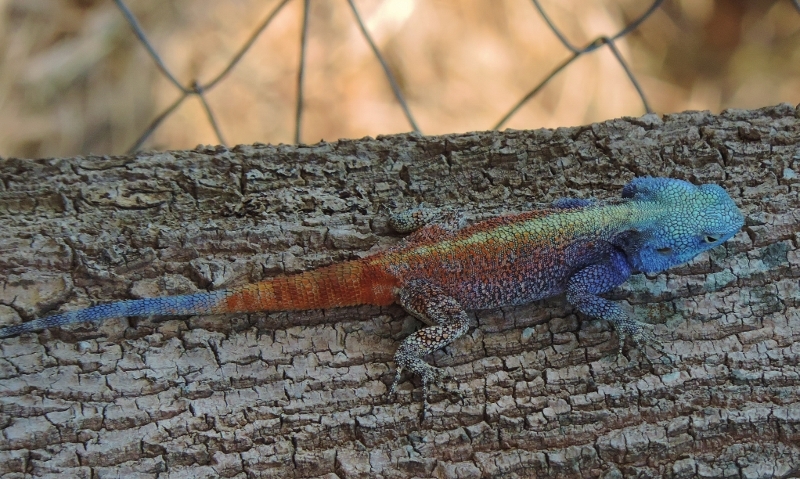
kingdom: Animalia
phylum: Chordata
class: Squamata
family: Agamidae
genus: Acanthocercus
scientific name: Acanthocercus atricollis
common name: Southern tree agama
